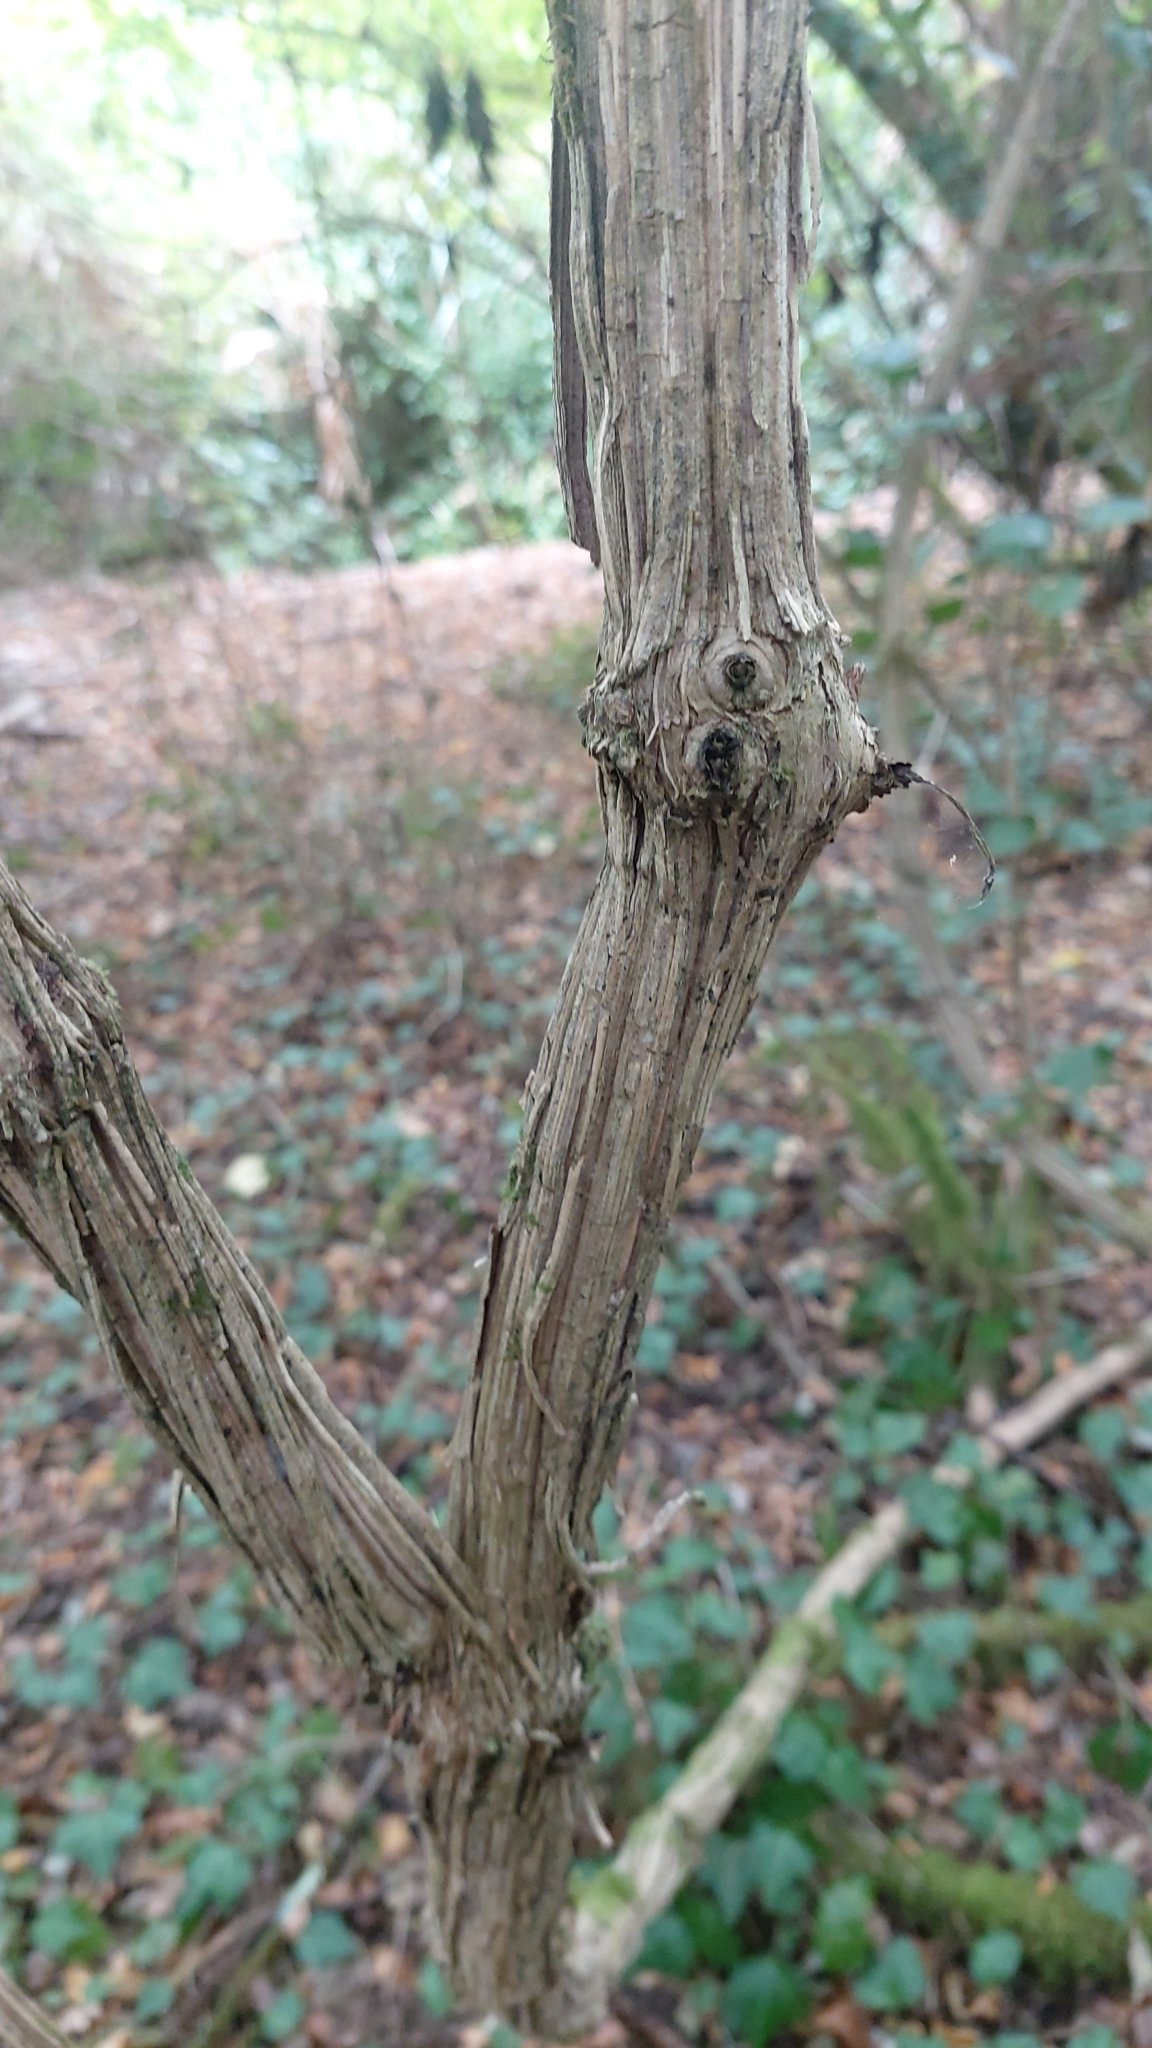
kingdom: Plantae
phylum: Tracheophyta
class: Magnoliopsida
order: Ranunculales
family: Ranunculaceae
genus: Clematis
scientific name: Clematis vitalba
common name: Evergreen clematis
